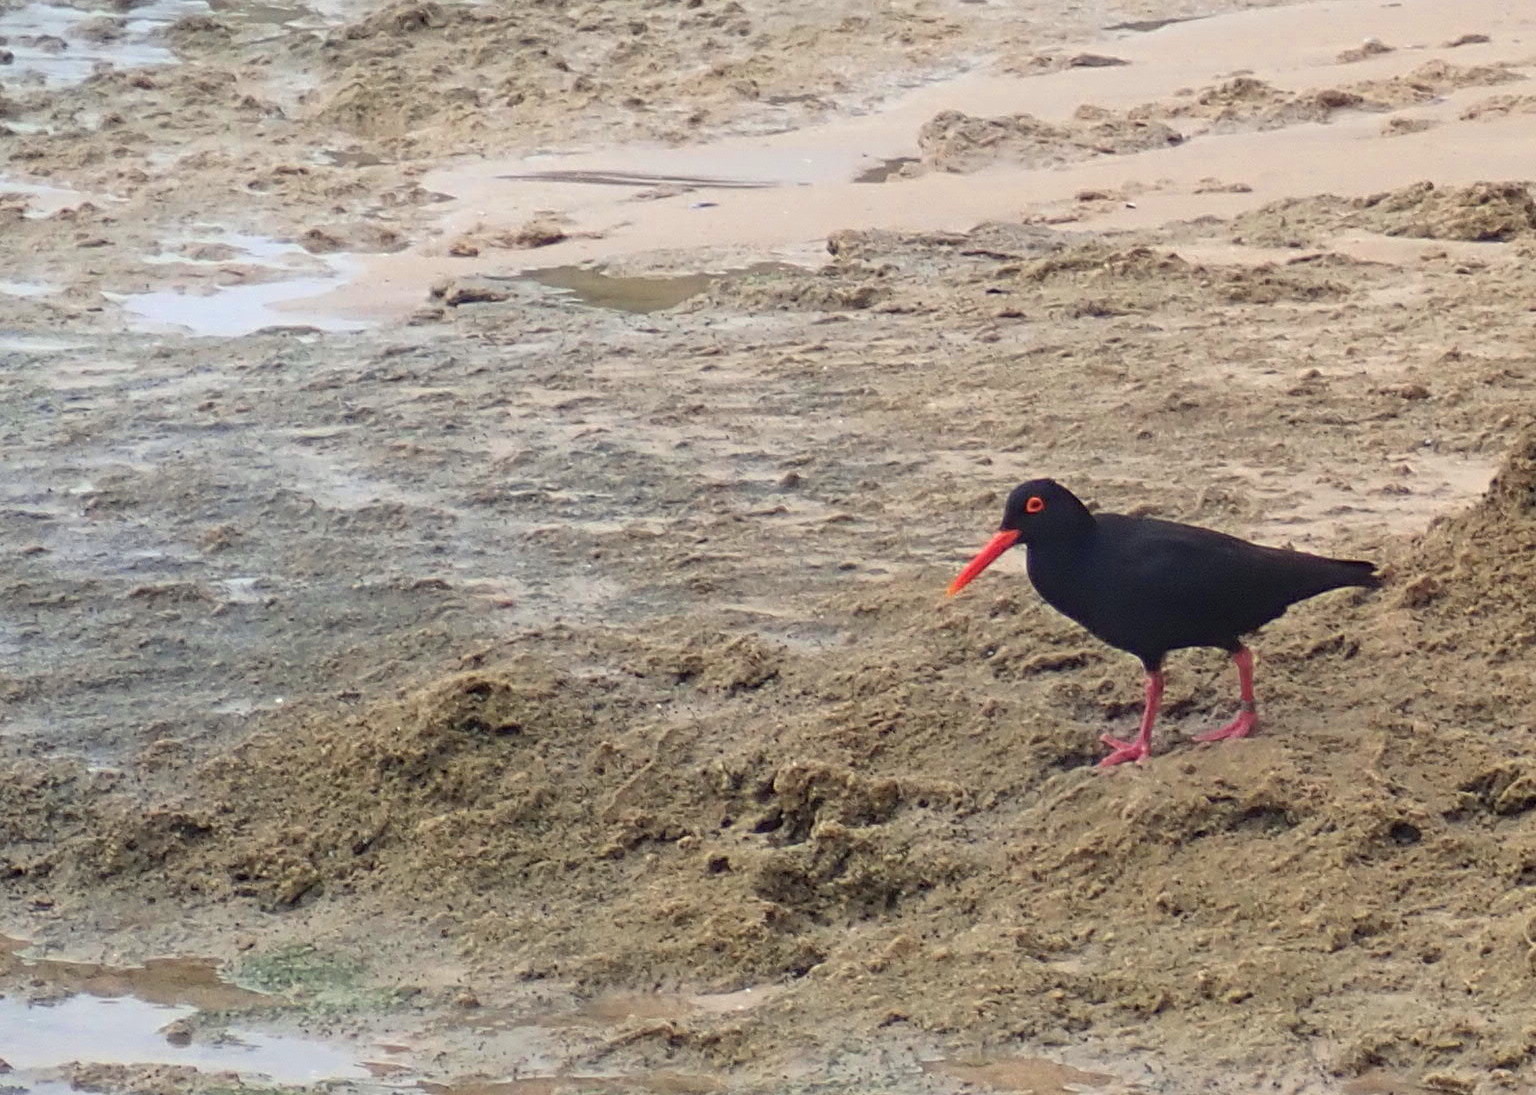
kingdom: Animalia
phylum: Chordata
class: Aves
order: Charadriiformes
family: Haematopodidae
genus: Haematopus
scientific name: Haematopus moquini
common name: African oystercatcher
